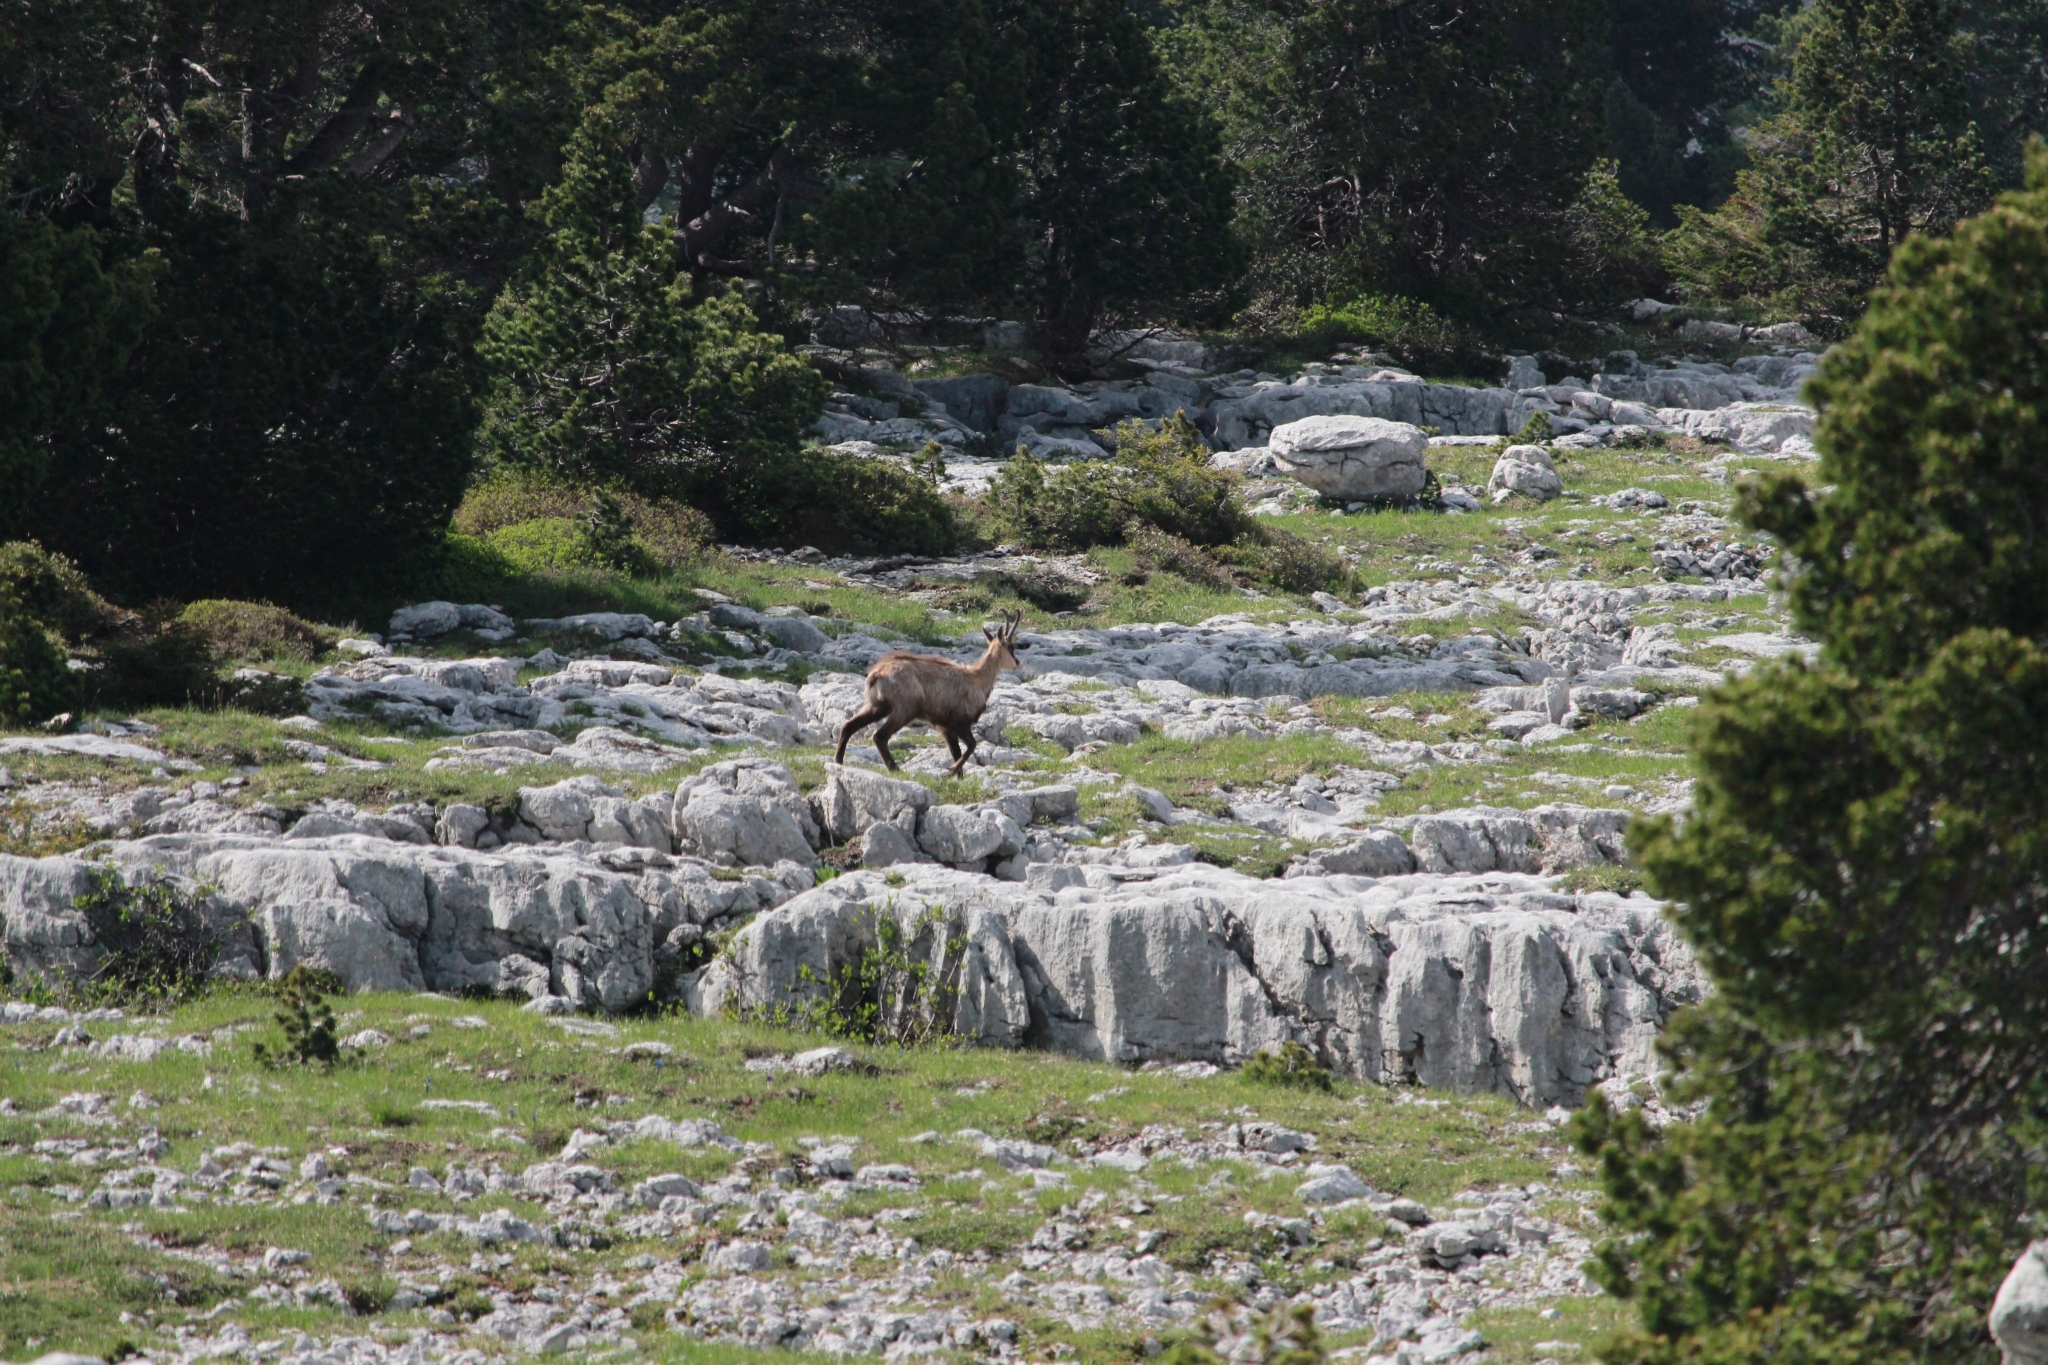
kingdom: Animalia
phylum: Chordata
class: Mammalia
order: Artiodactyla
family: Bovidae
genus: Rupicapra
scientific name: Rupicapra rupicapra
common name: Chamois
